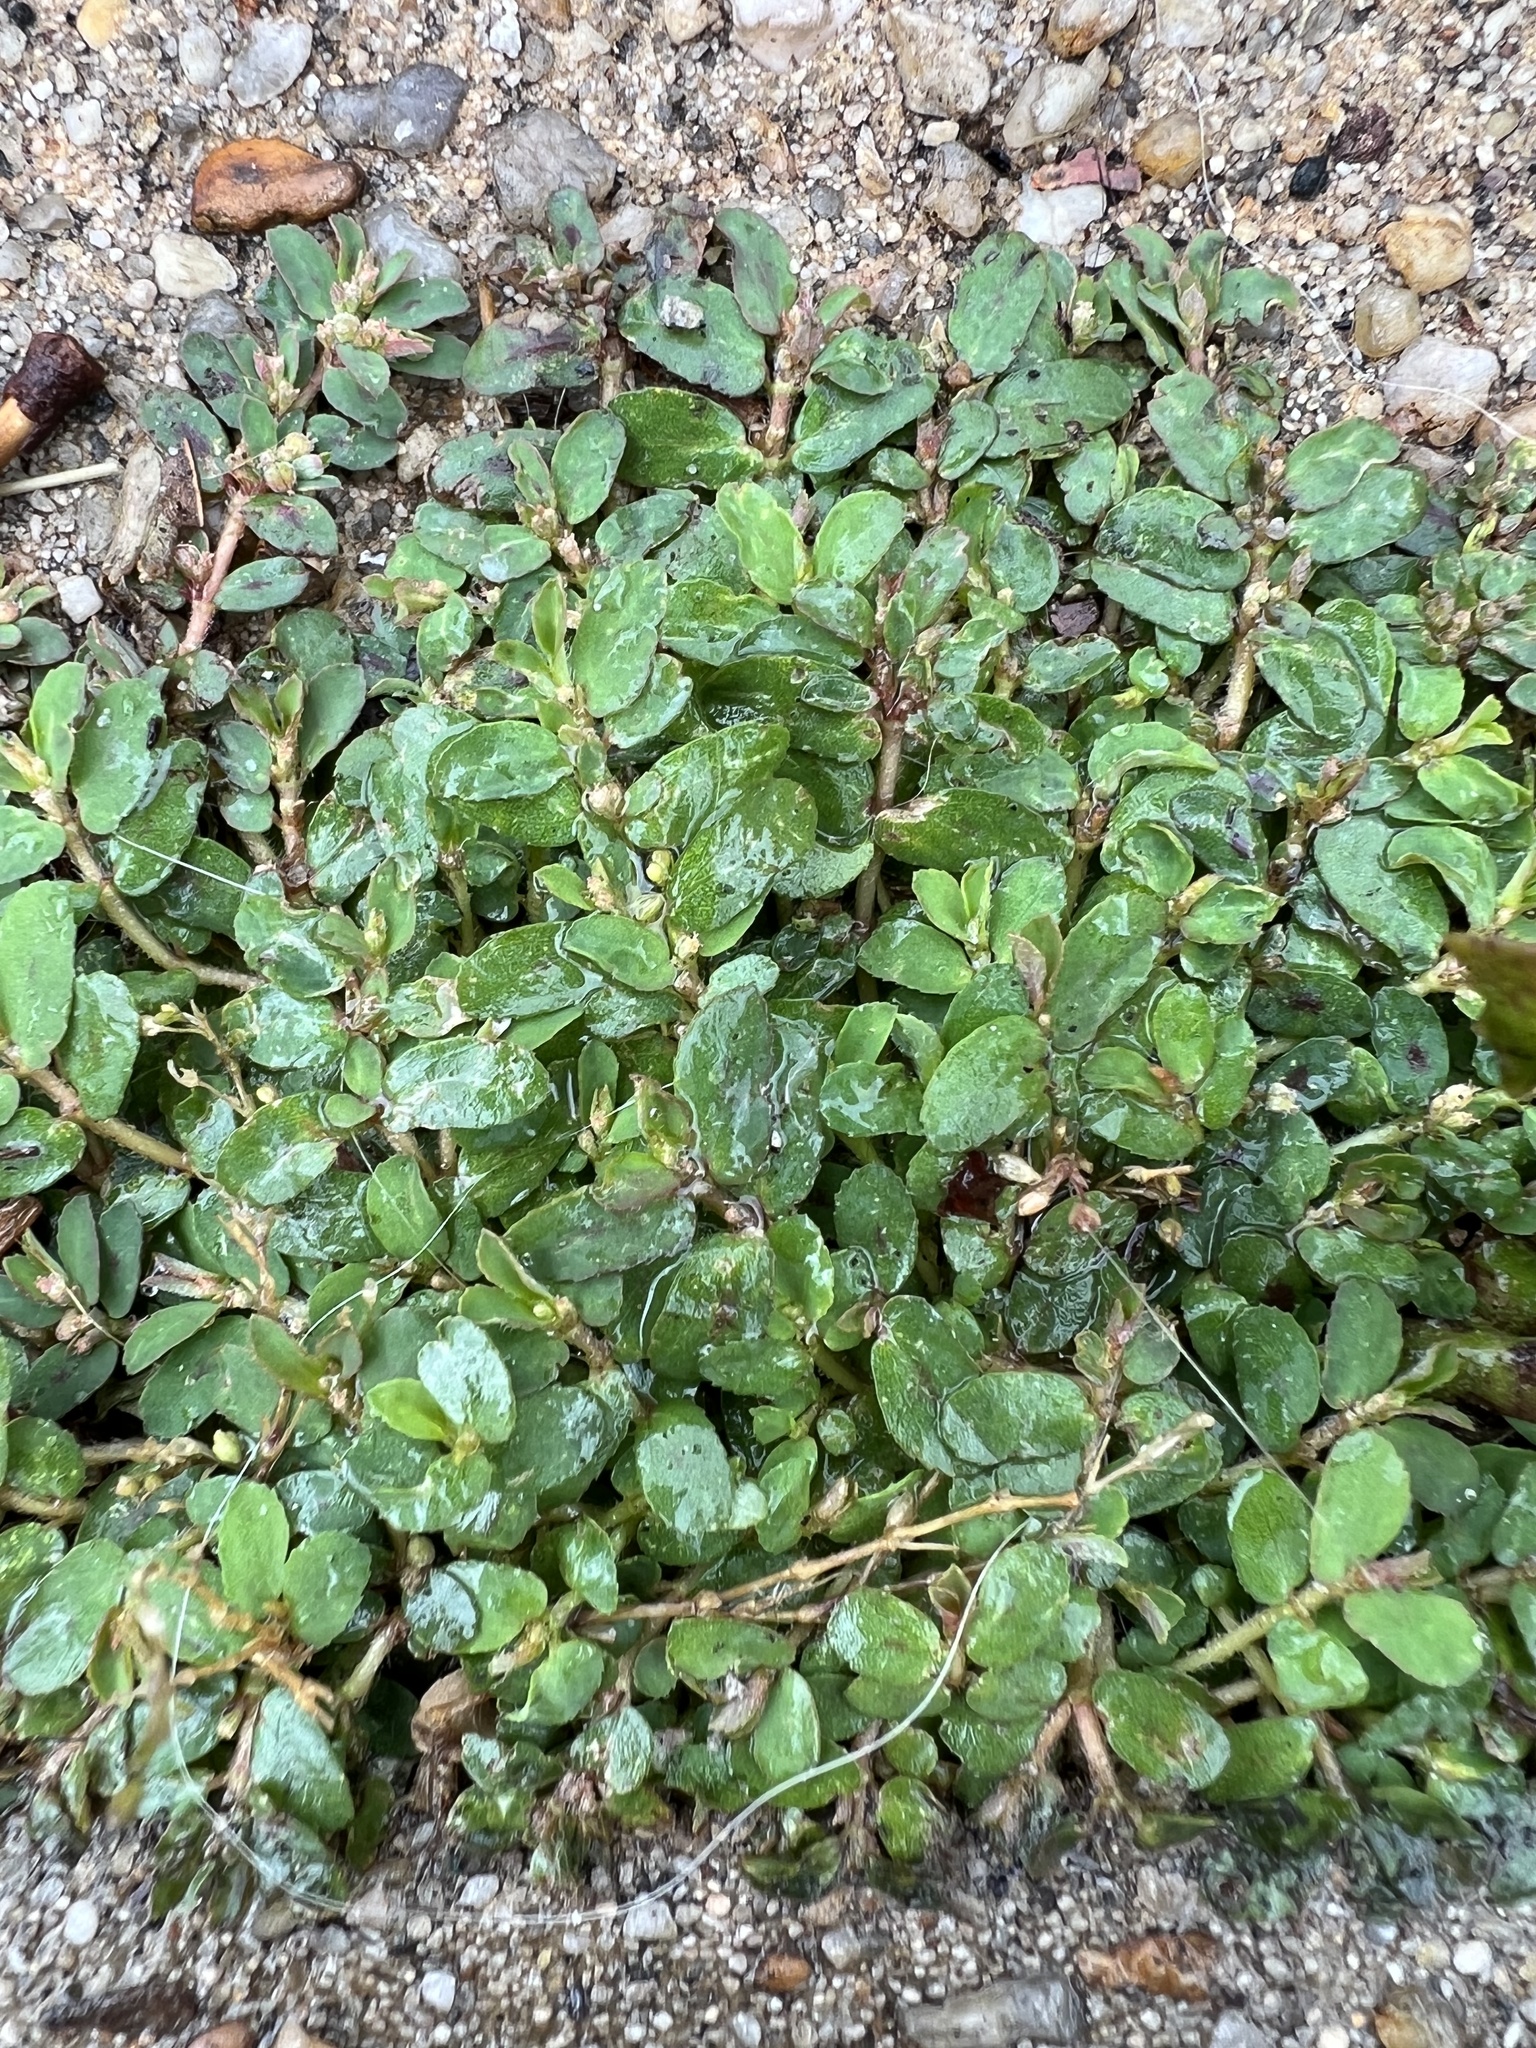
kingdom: Plantae
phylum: Tracheophyta
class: Magnoliopsida
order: Malpighiales
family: Euphorbiaceae
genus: Euphorbia
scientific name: Euphorbia maculata
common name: Spotted spurge
